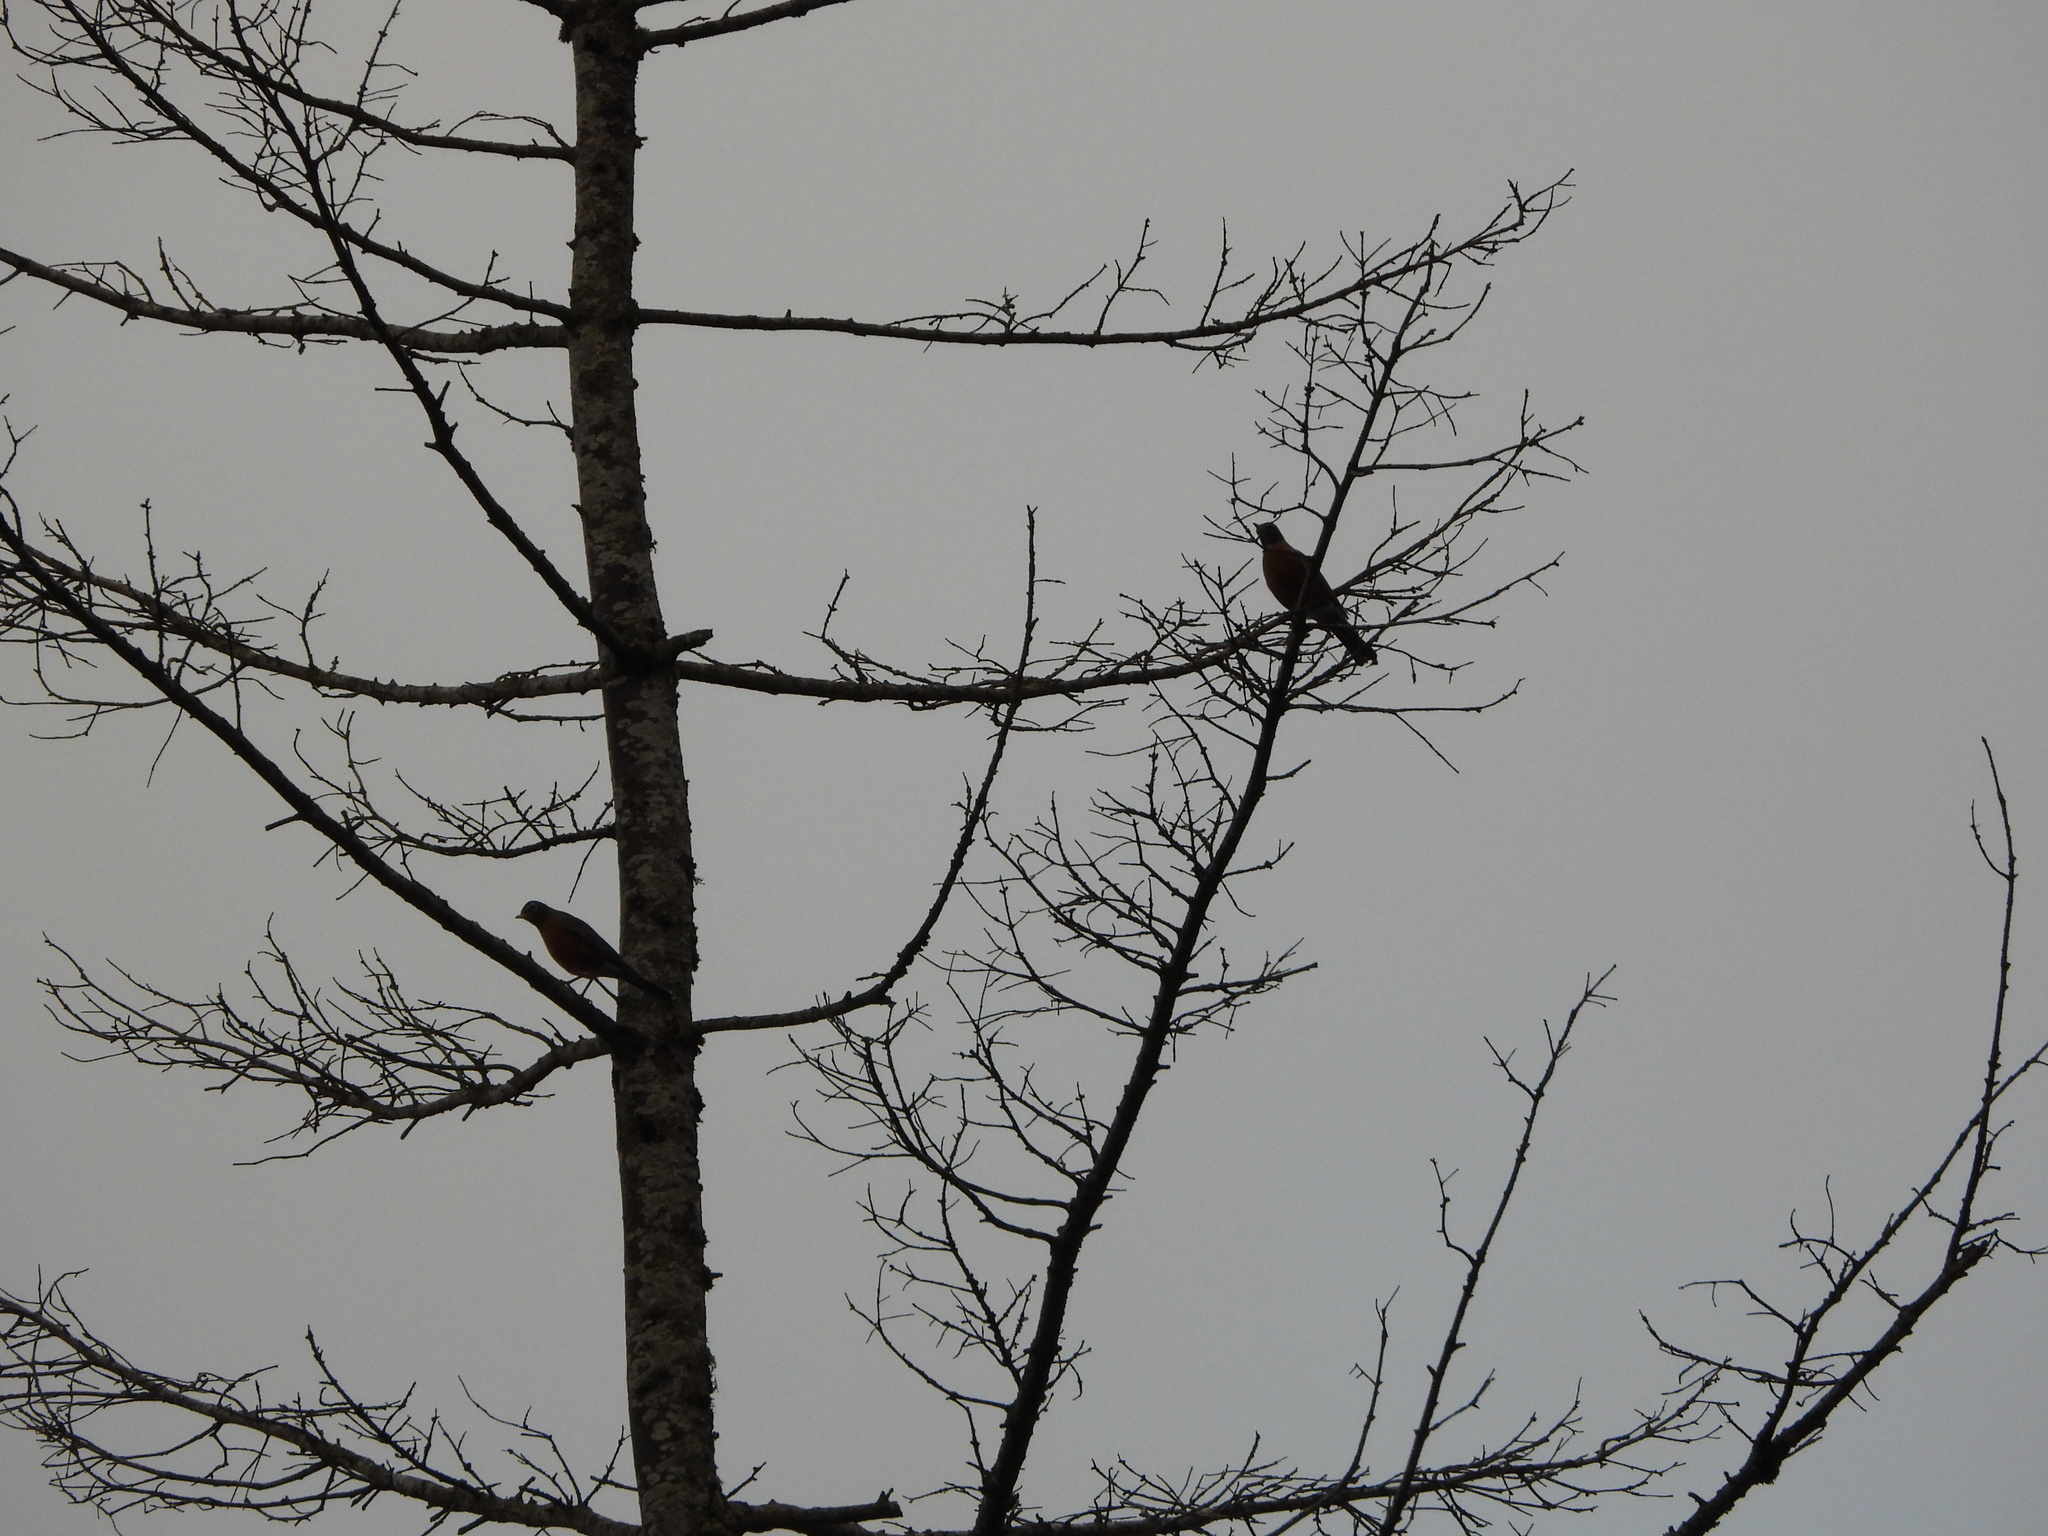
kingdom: Animalia
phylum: Chordata
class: Aves
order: Passeriformes
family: Turdidae
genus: Turdus
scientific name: Turdus migratorius
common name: American robin
